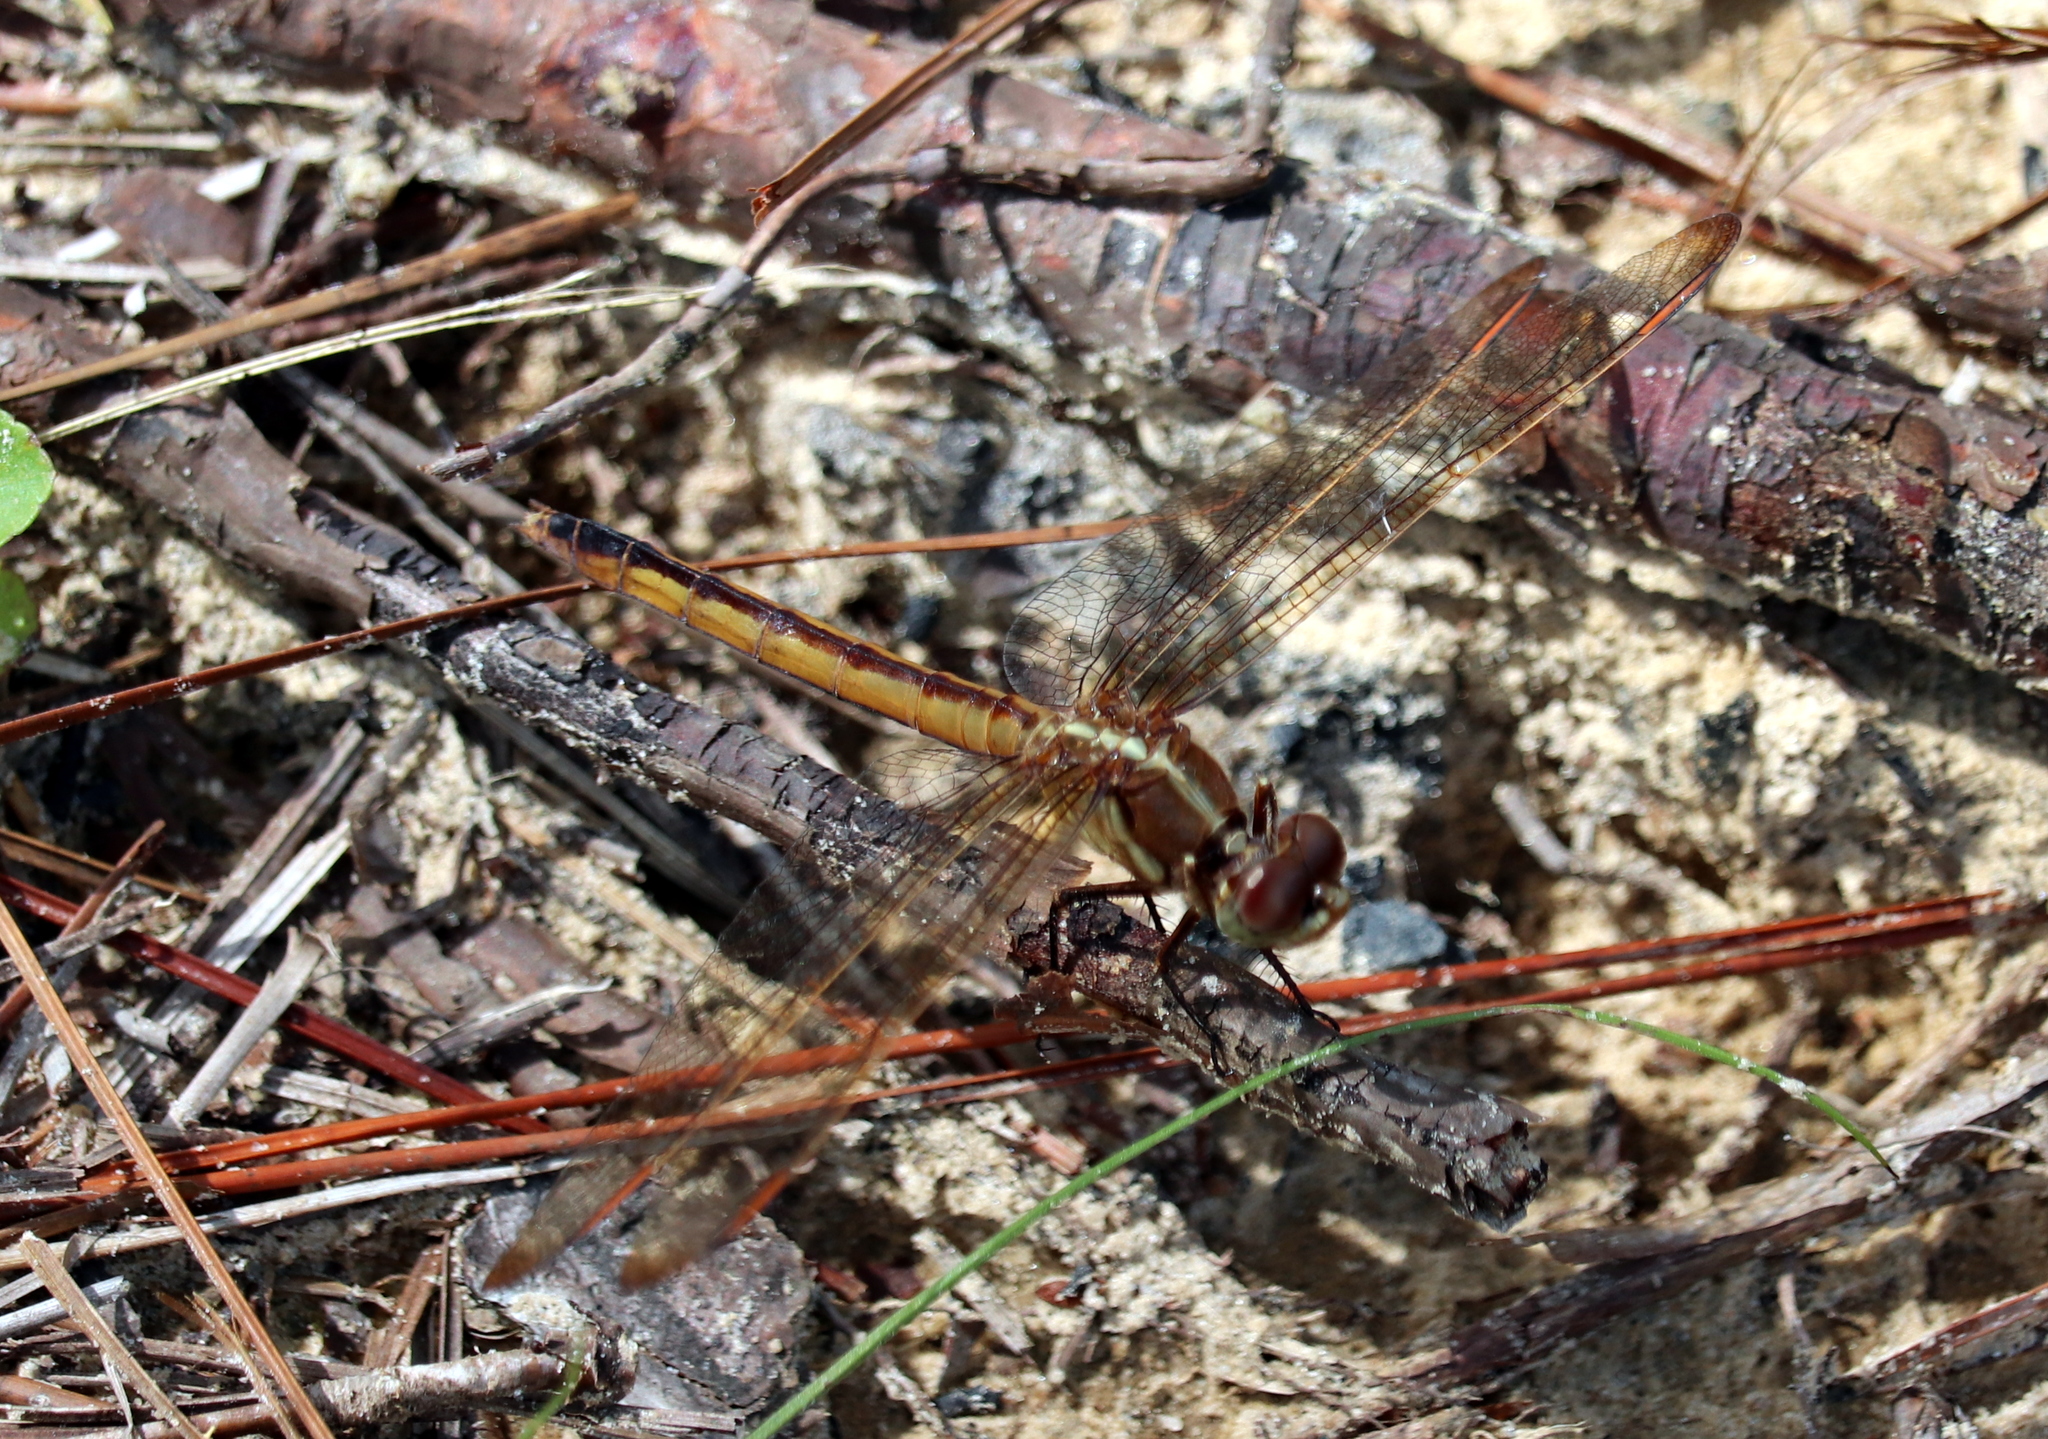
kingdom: Animalia
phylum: Arthropoda
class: Insecta
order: Odonata
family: Libellulidae
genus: Libellula
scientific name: Libellula auripennis
